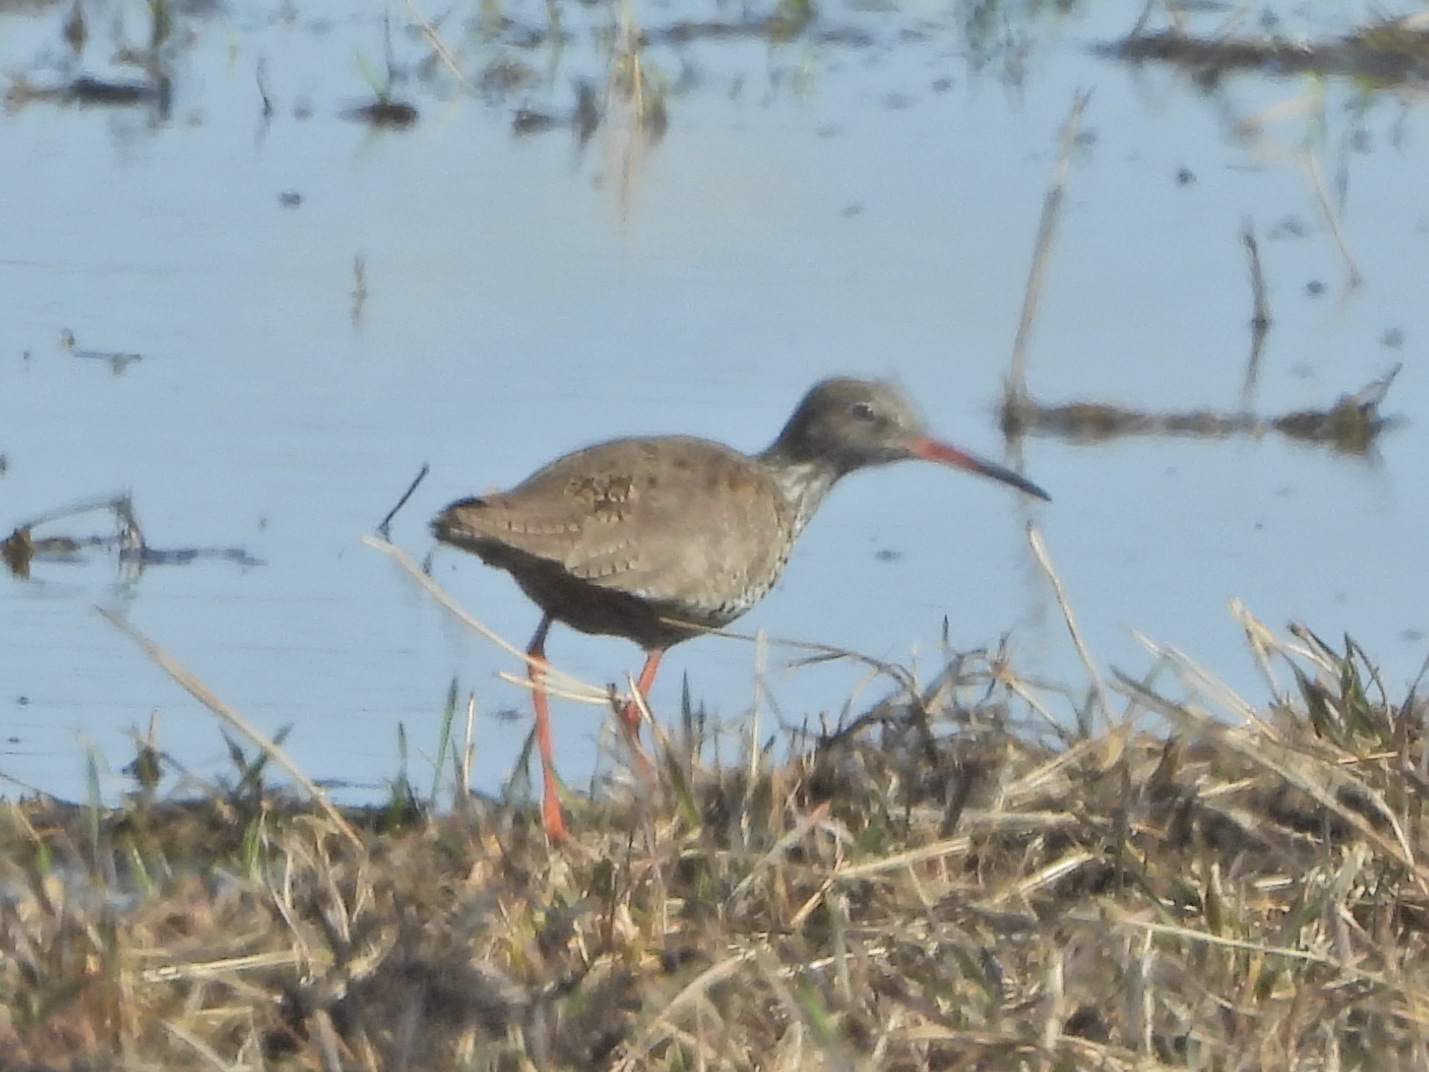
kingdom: Animalia
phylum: Chordata
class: Aves
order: Charadriiformes
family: Scolopacidae
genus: Tringa
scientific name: Tringa totanus
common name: Common redshank
